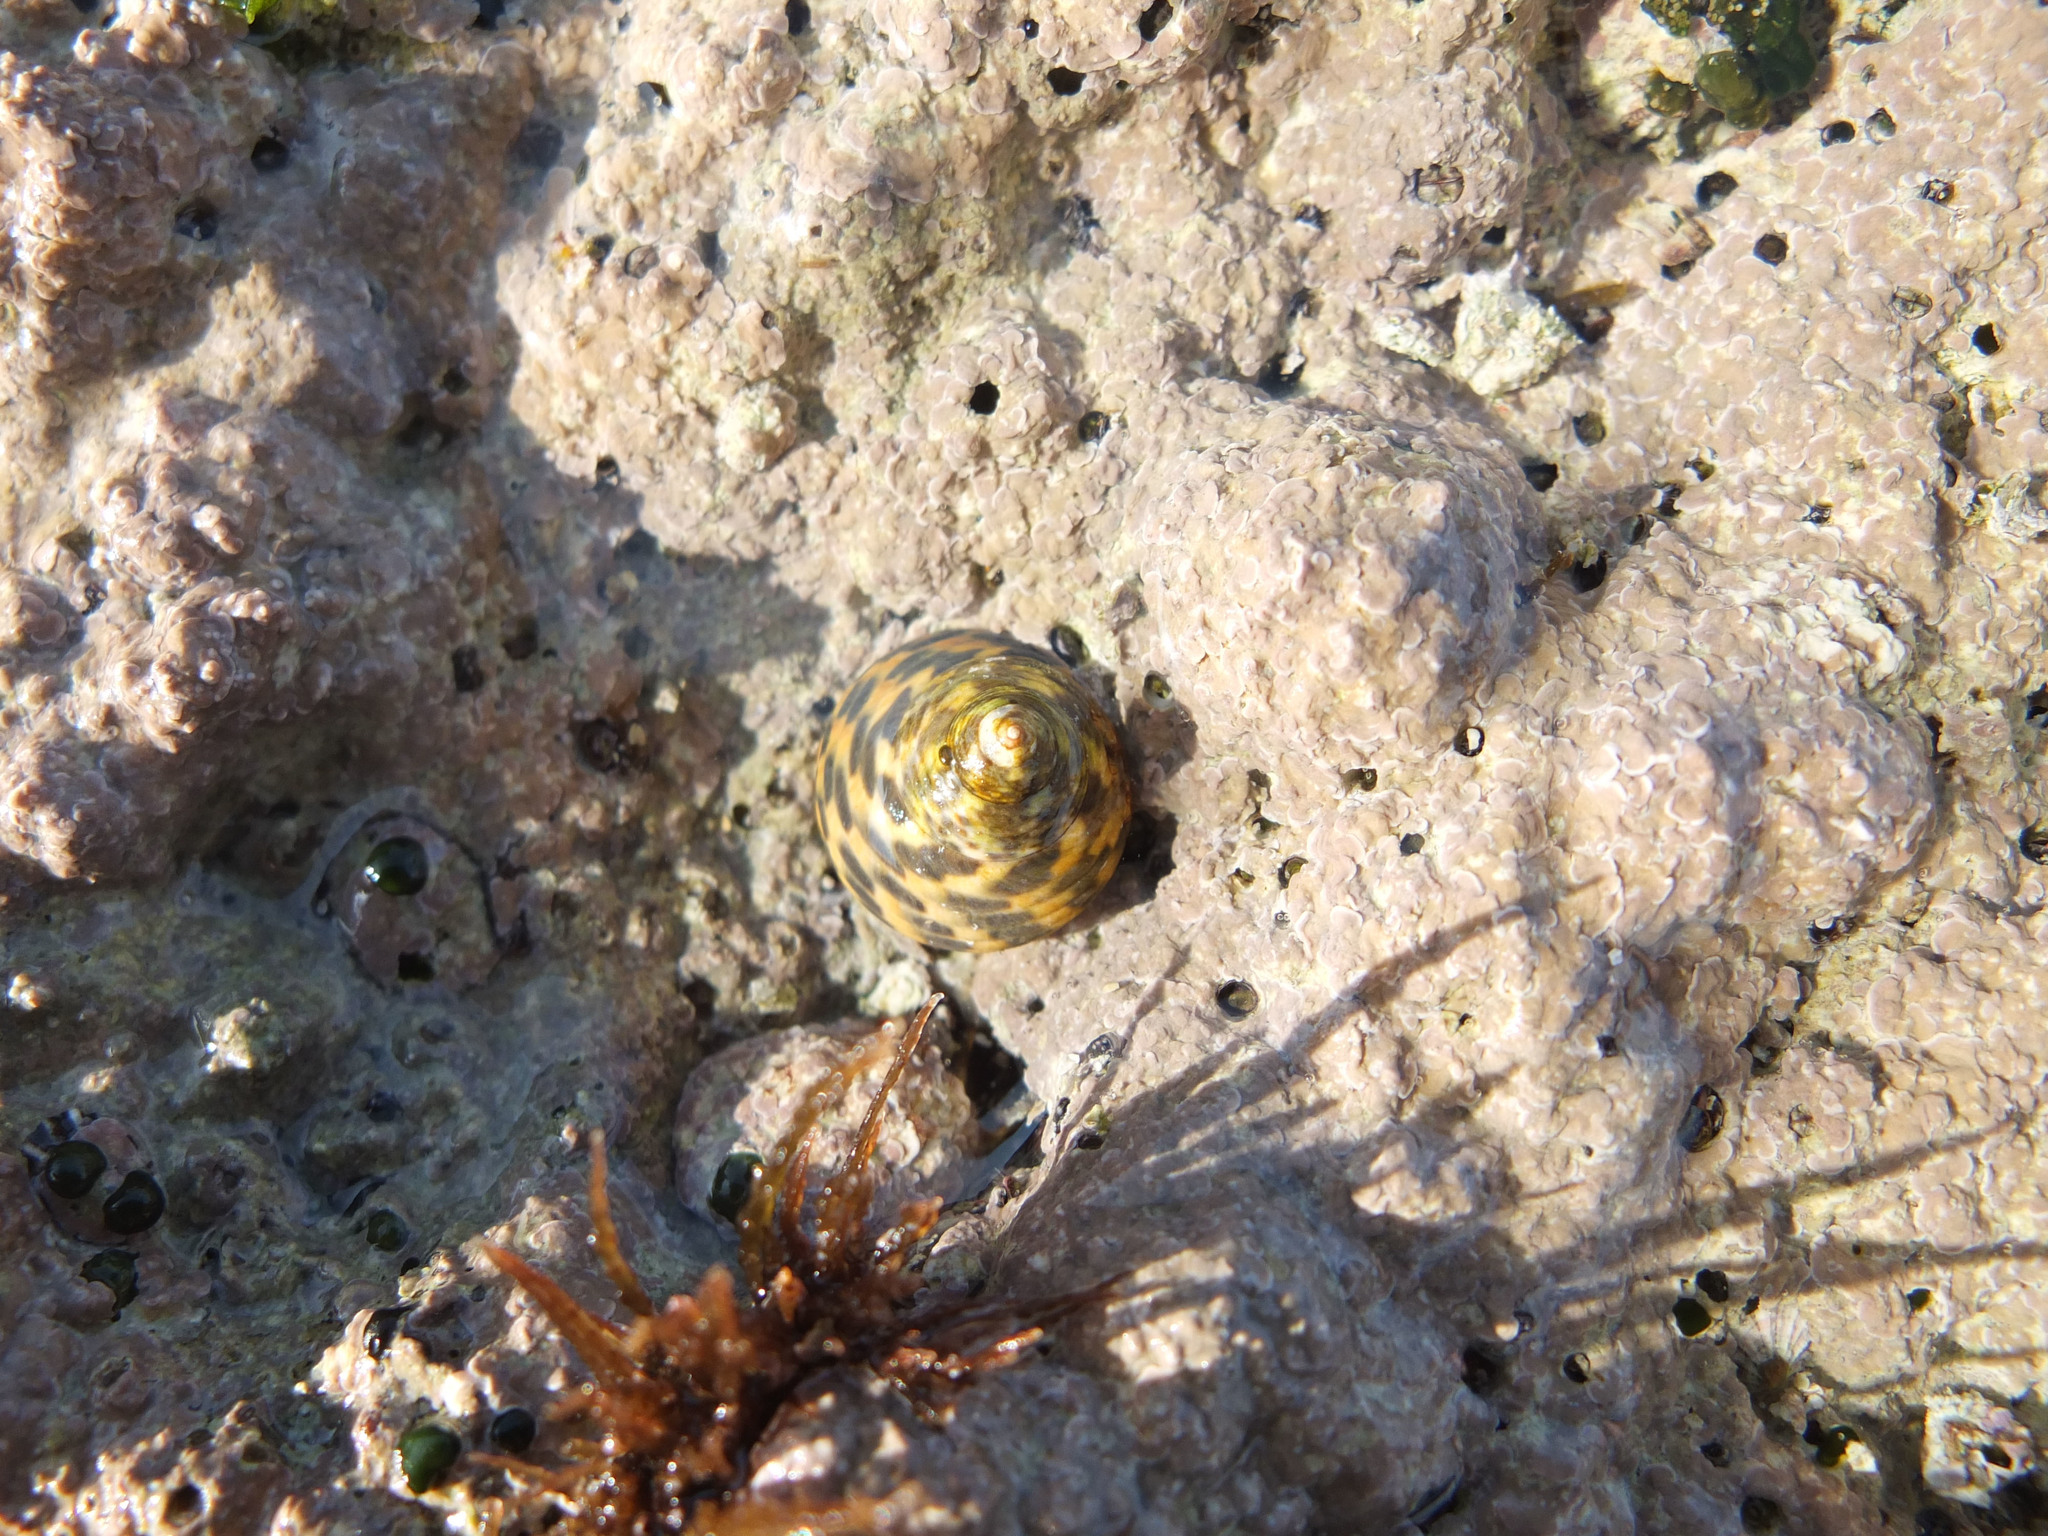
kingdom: Animalia
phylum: Mollusca
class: Gastropoda
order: Trochida
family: Trochidae
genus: Phorcus
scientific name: Phorcus turbinatus
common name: Turbinate monodont
